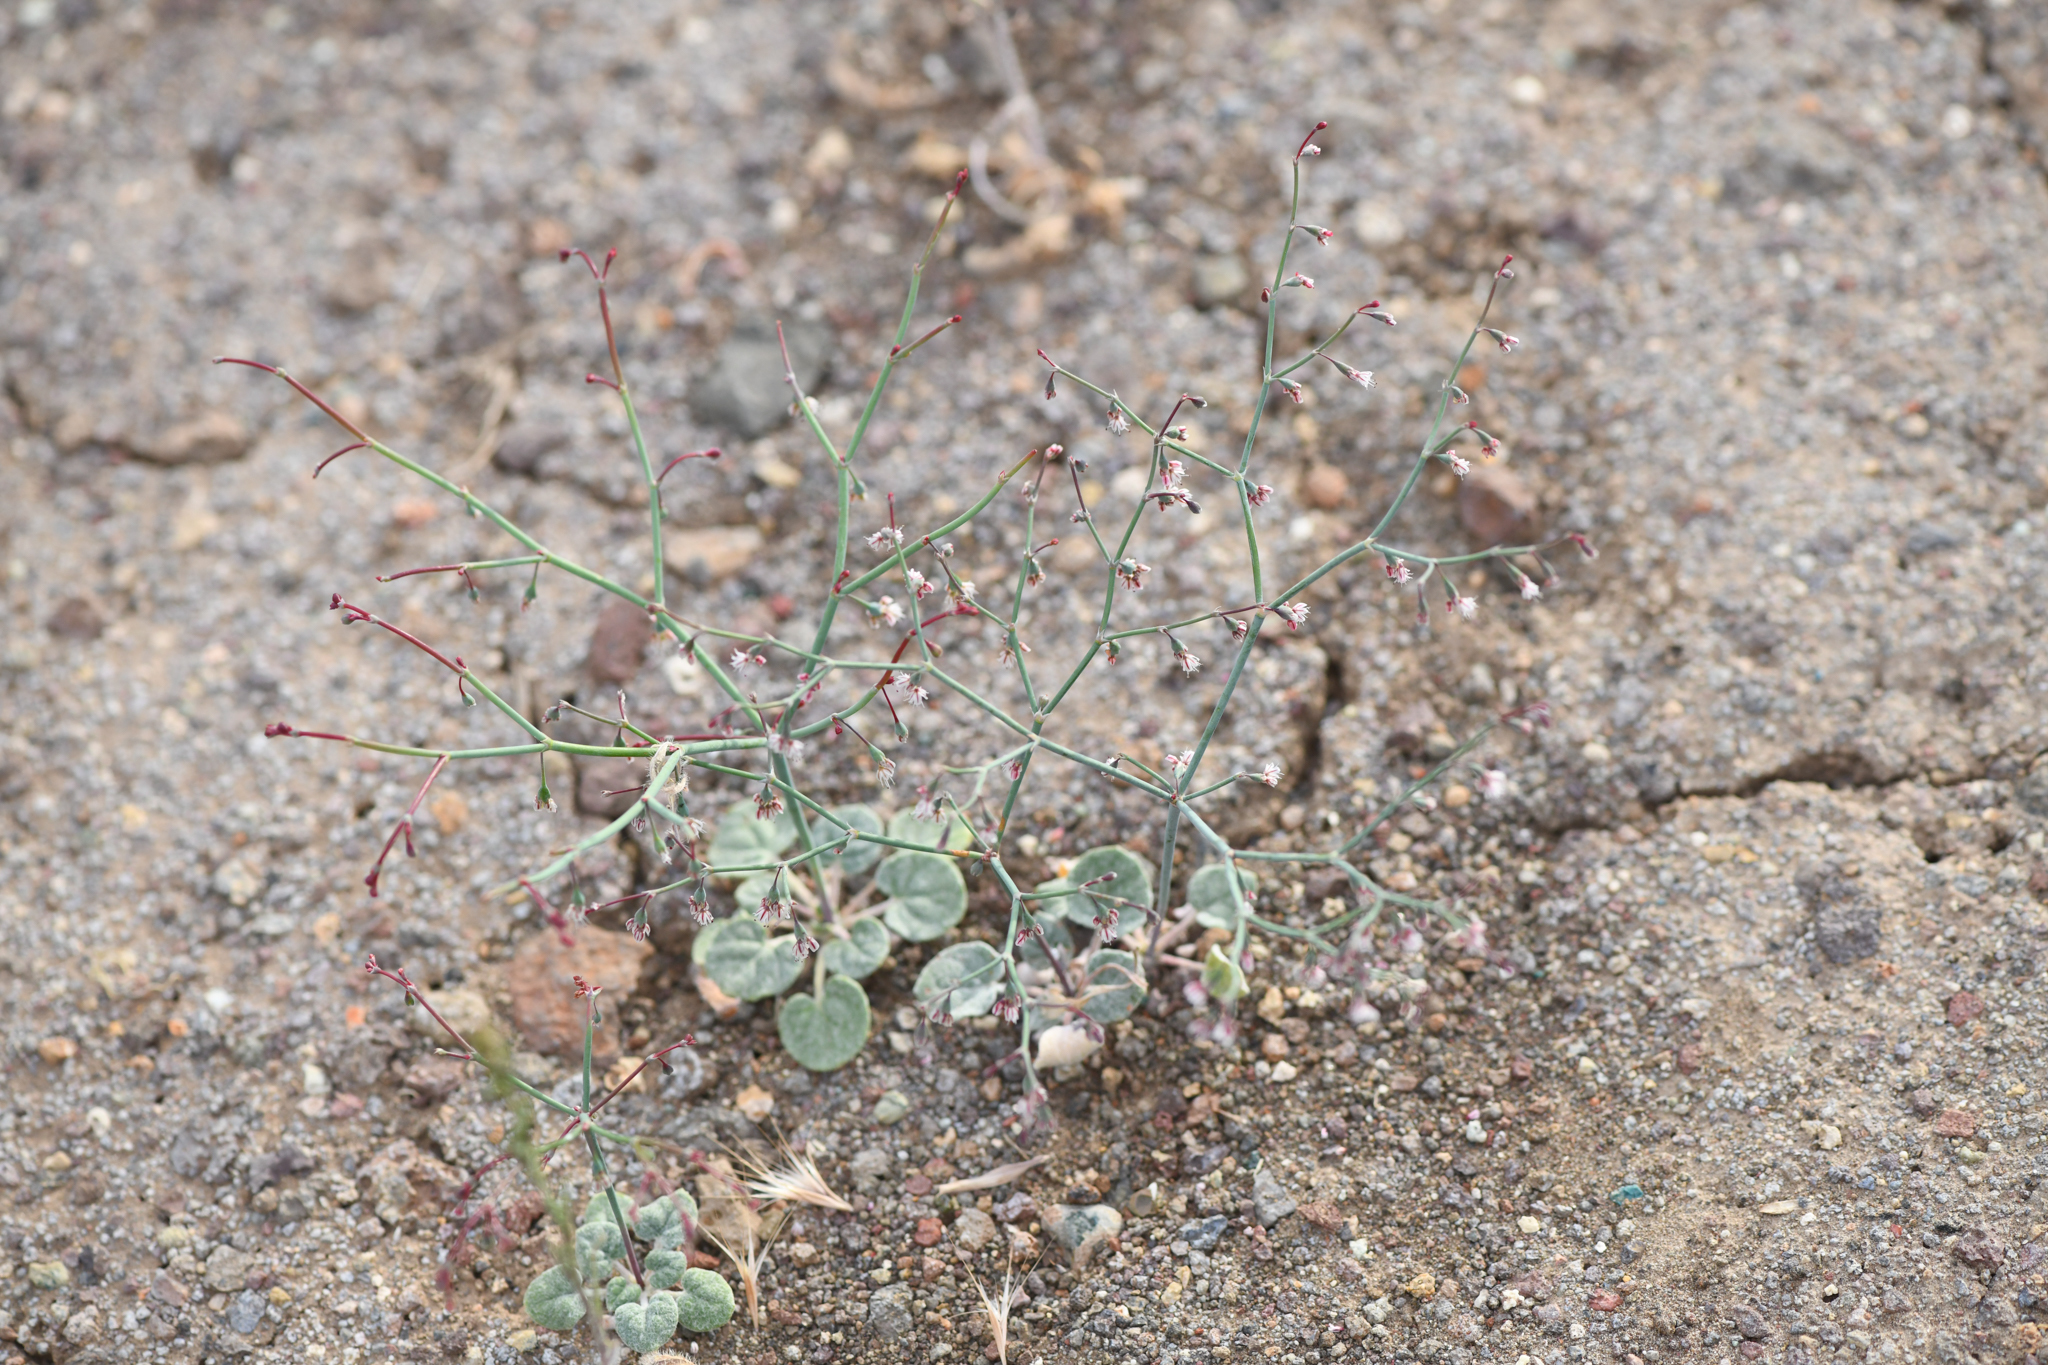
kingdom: Plantae
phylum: Tracheophyta
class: Magnoliopsida
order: Caryophyllales
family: Polygonaceae
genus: Eriogonum
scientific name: Eriogonum deflexum
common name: Skeleton-weed
